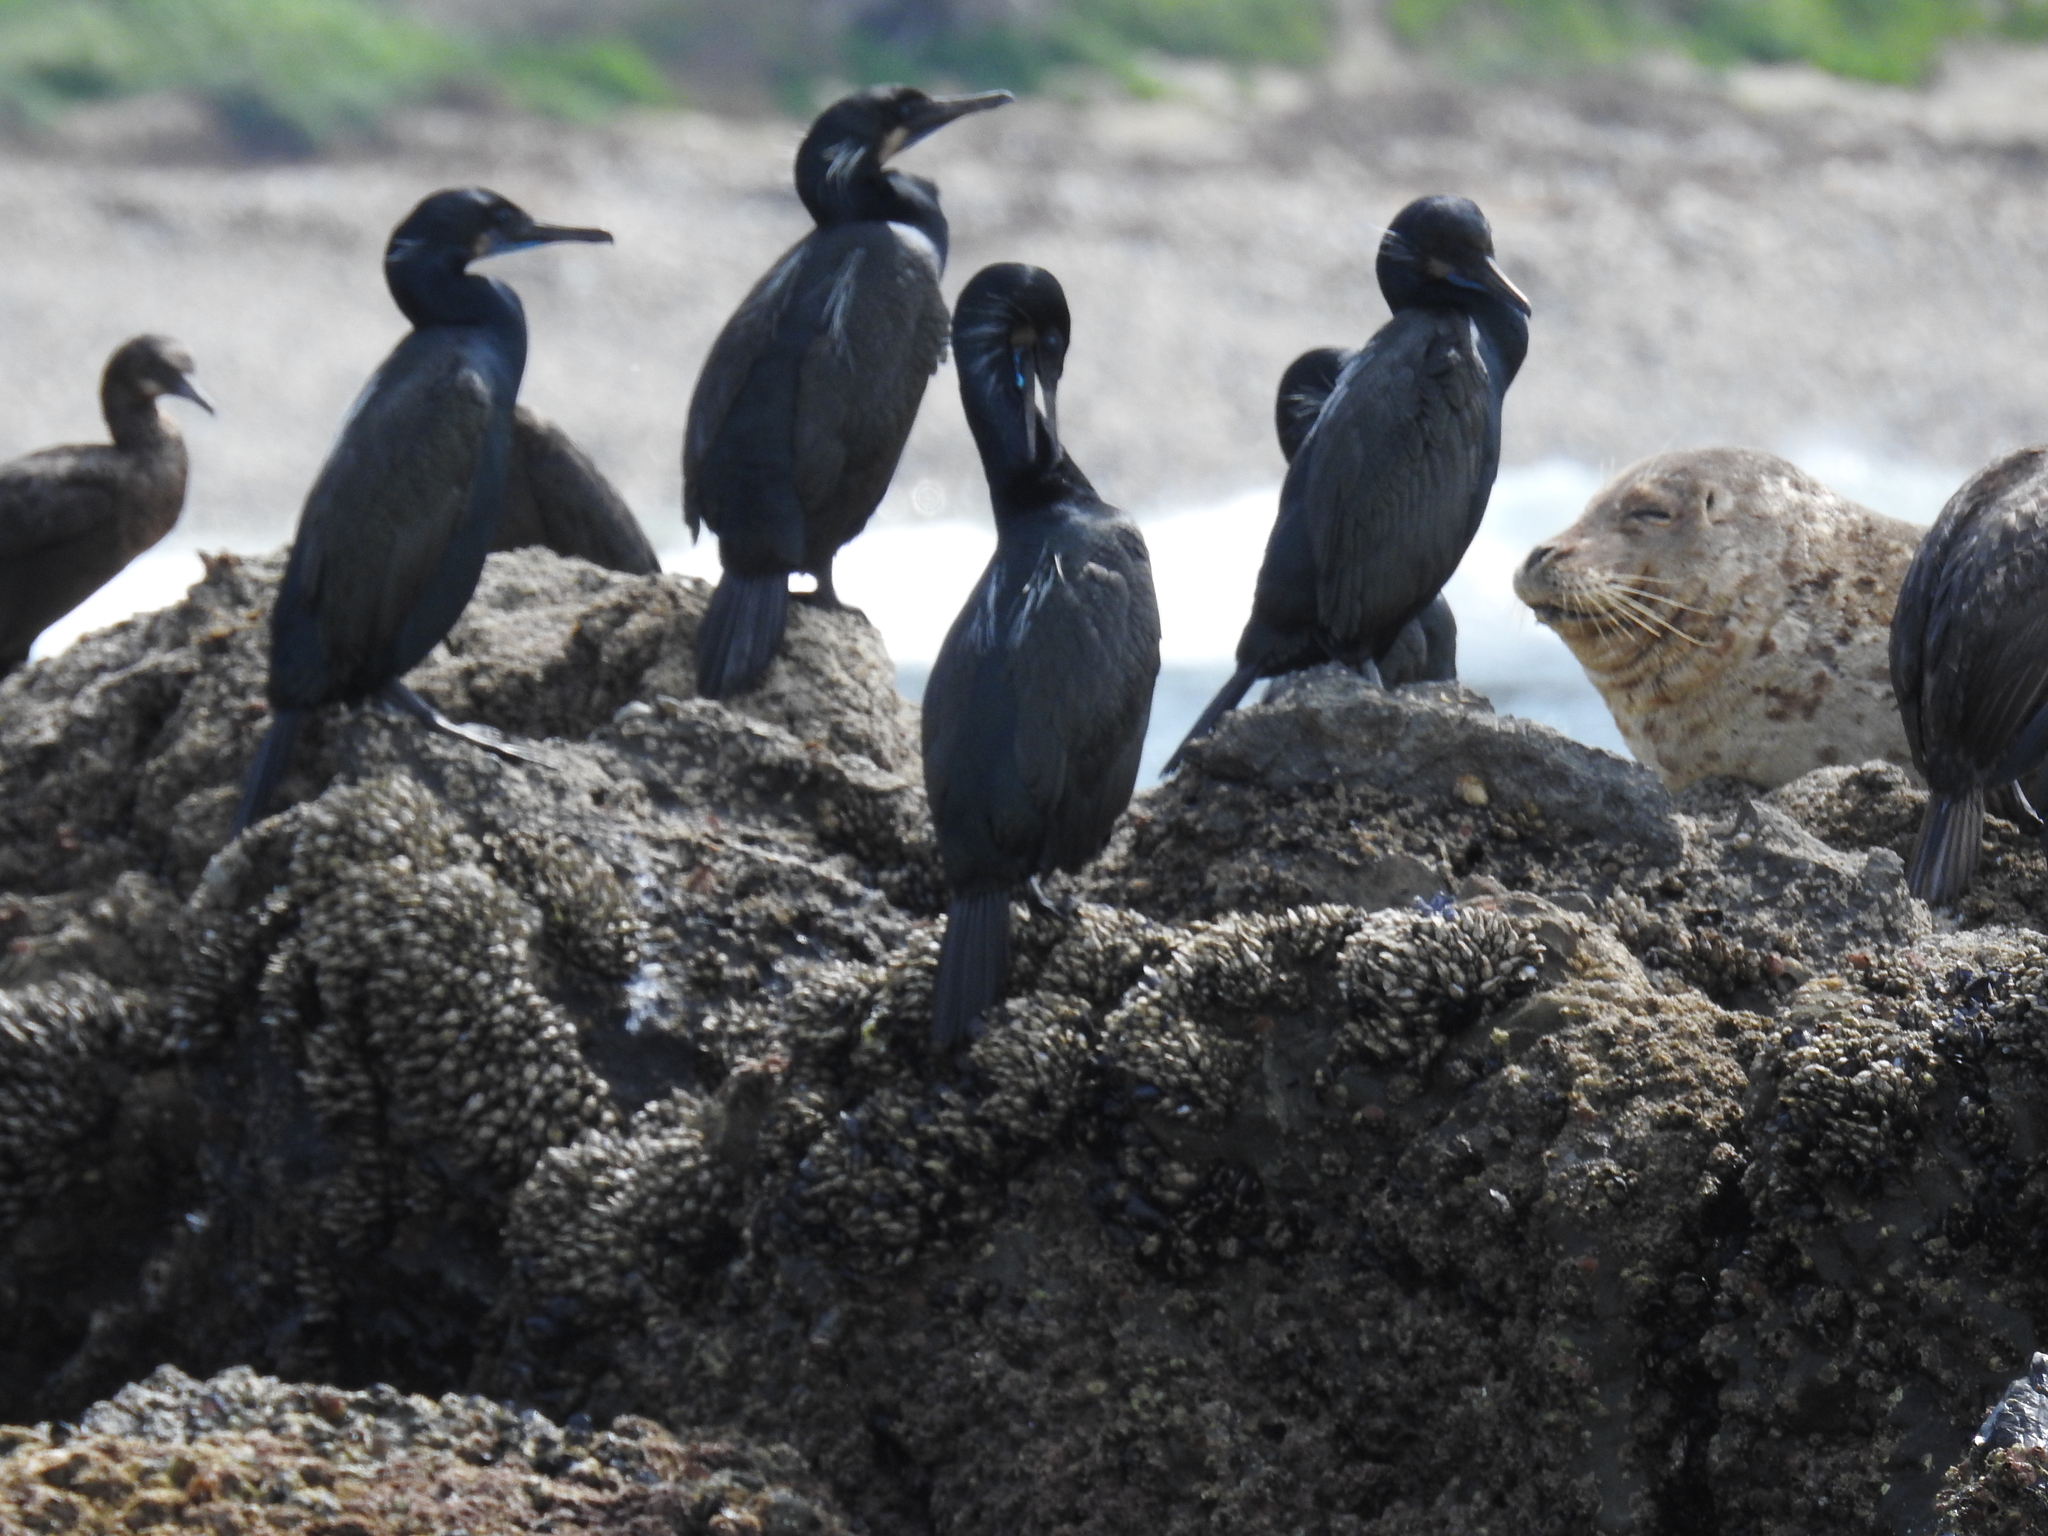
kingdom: Animalia
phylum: Chordata
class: Mammalia
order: Carnivora
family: Phocidae
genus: Phoca
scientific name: Phoca vitulina
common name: Harbor seal
